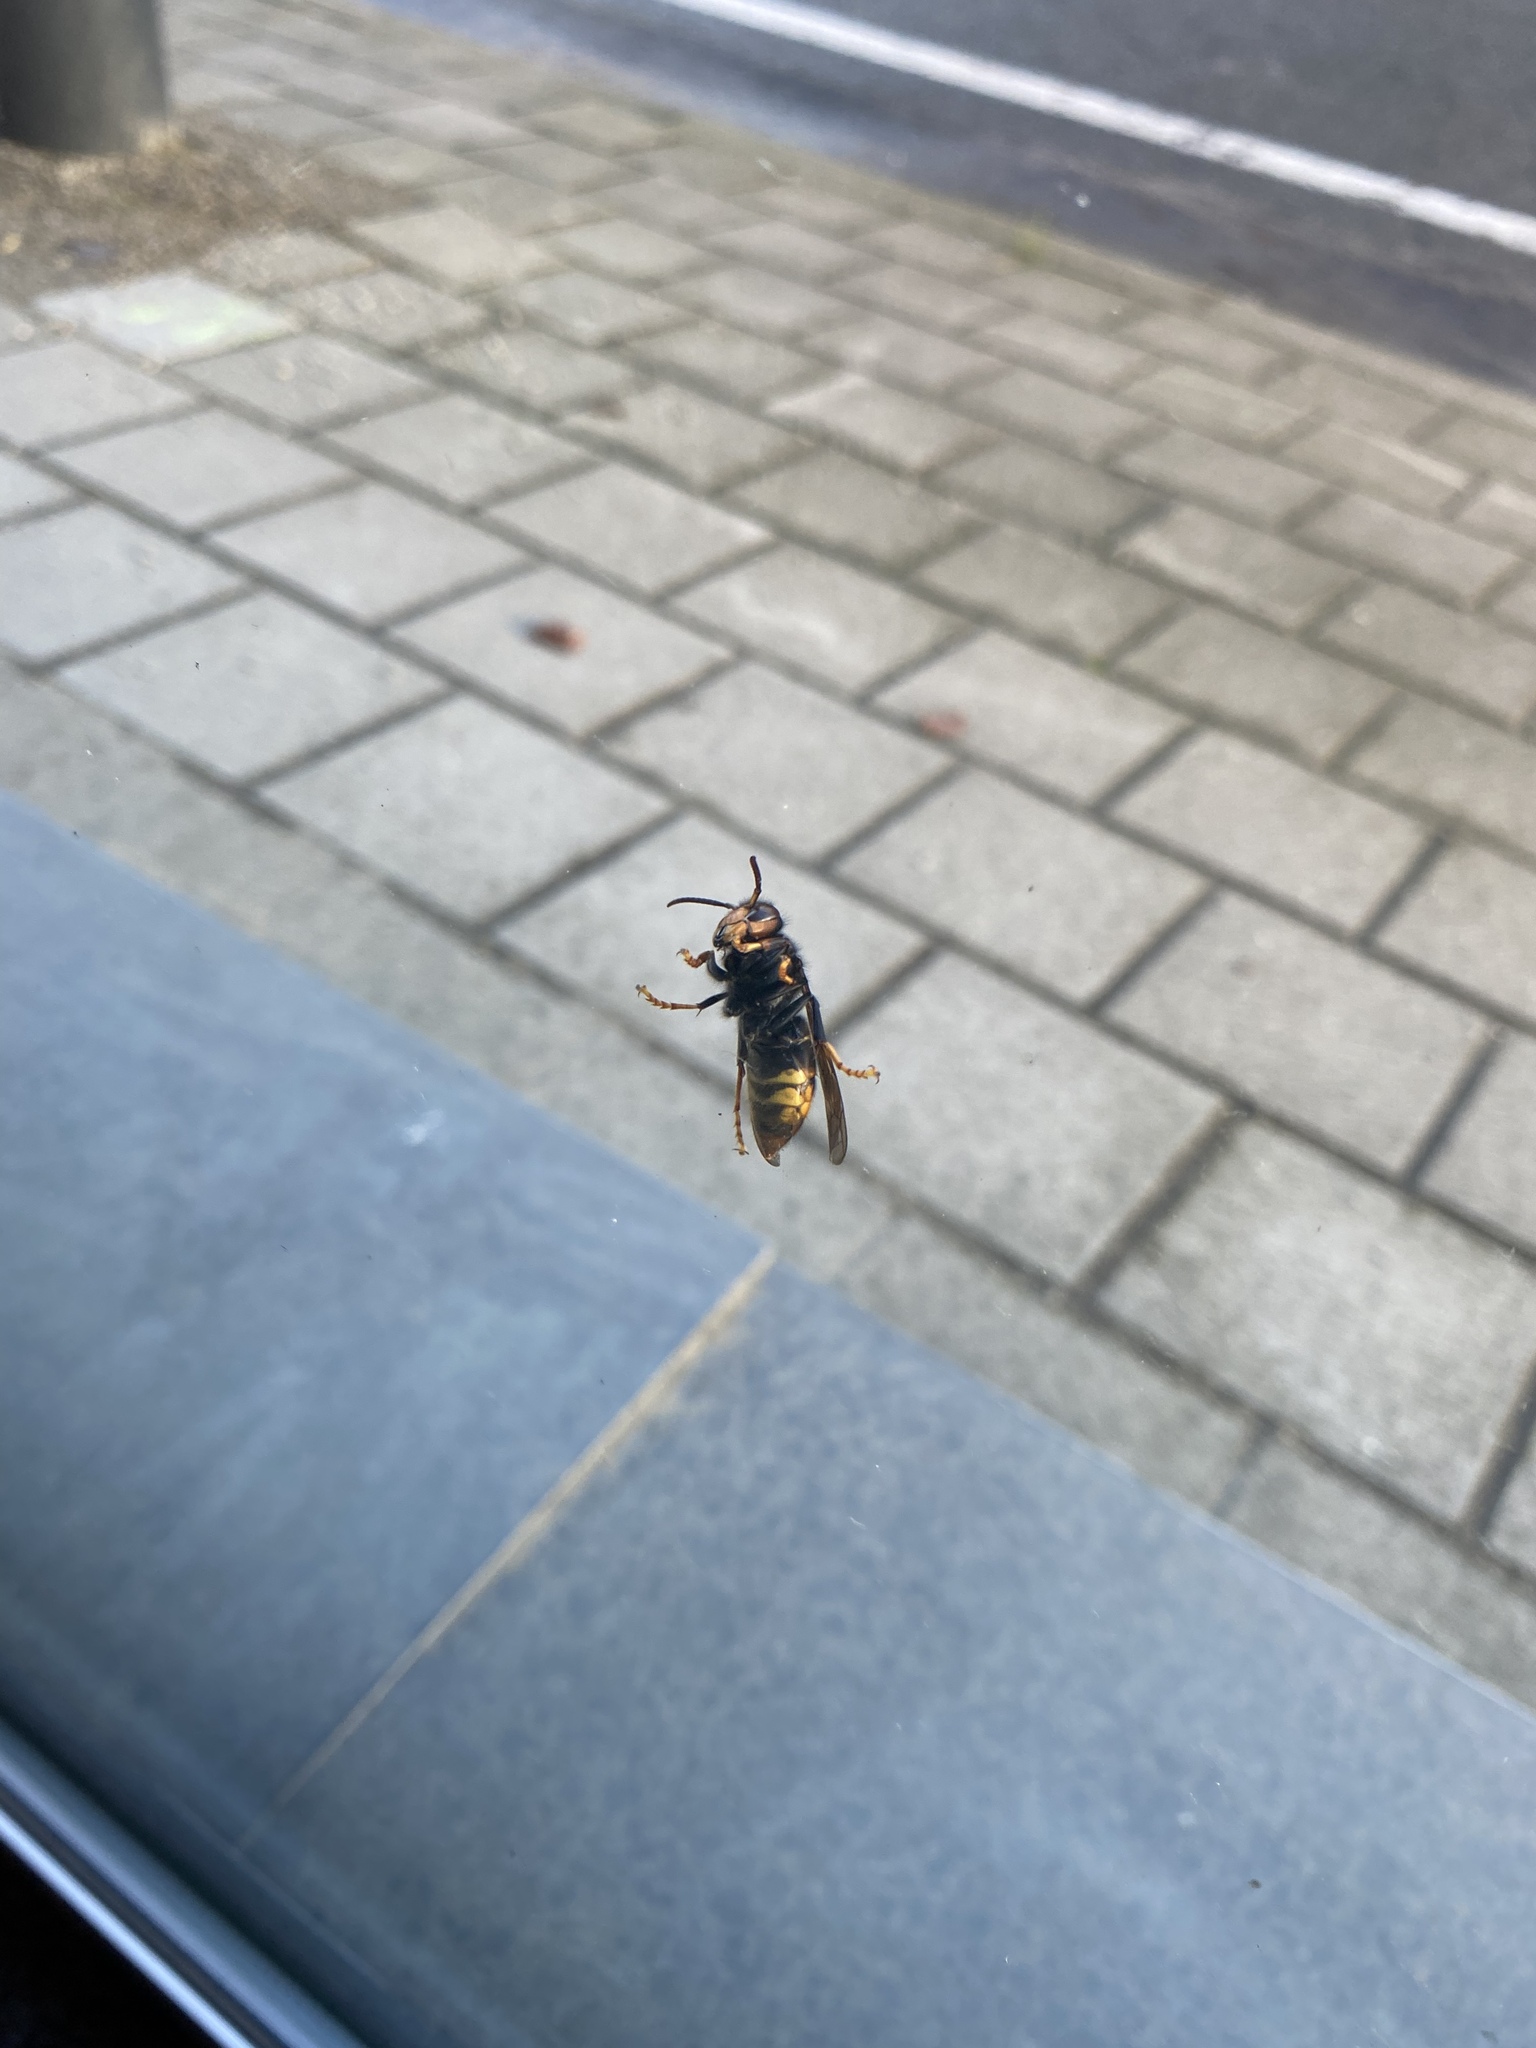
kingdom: Animalia
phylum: Arthropoda
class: Insecta
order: Hymenoptera
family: Vespidae
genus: Vespa
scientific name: Vespa velutina
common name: Asian hornet
